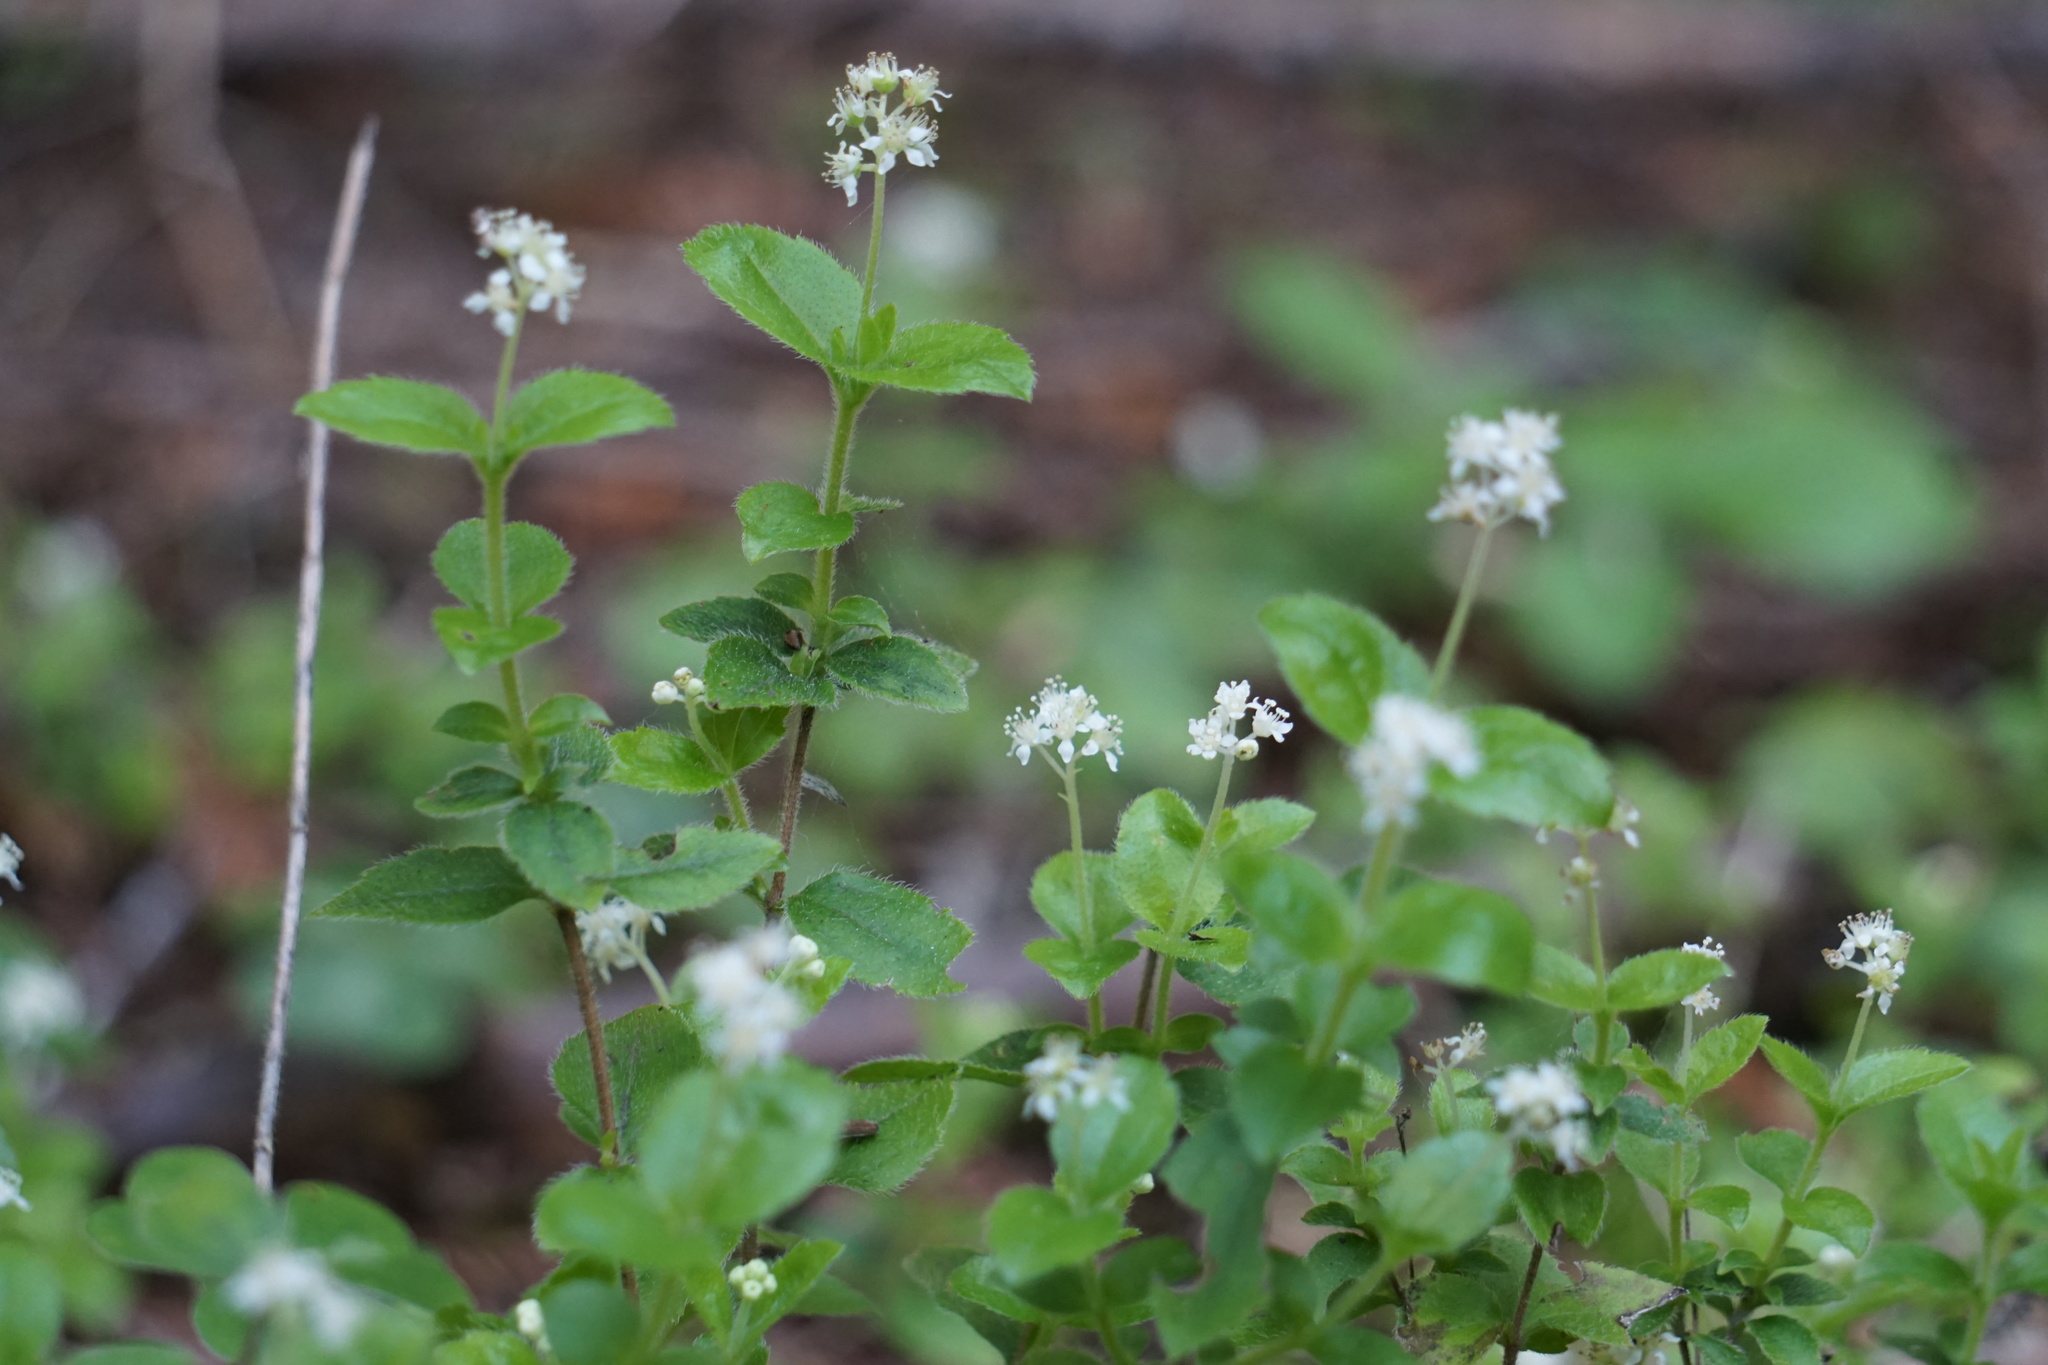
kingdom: Plantae
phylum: Tracheophyta
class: Magnoliopsida
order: Cornales
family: Hydrangeaceae
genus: Whipplea
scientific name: Whipplea modesta
